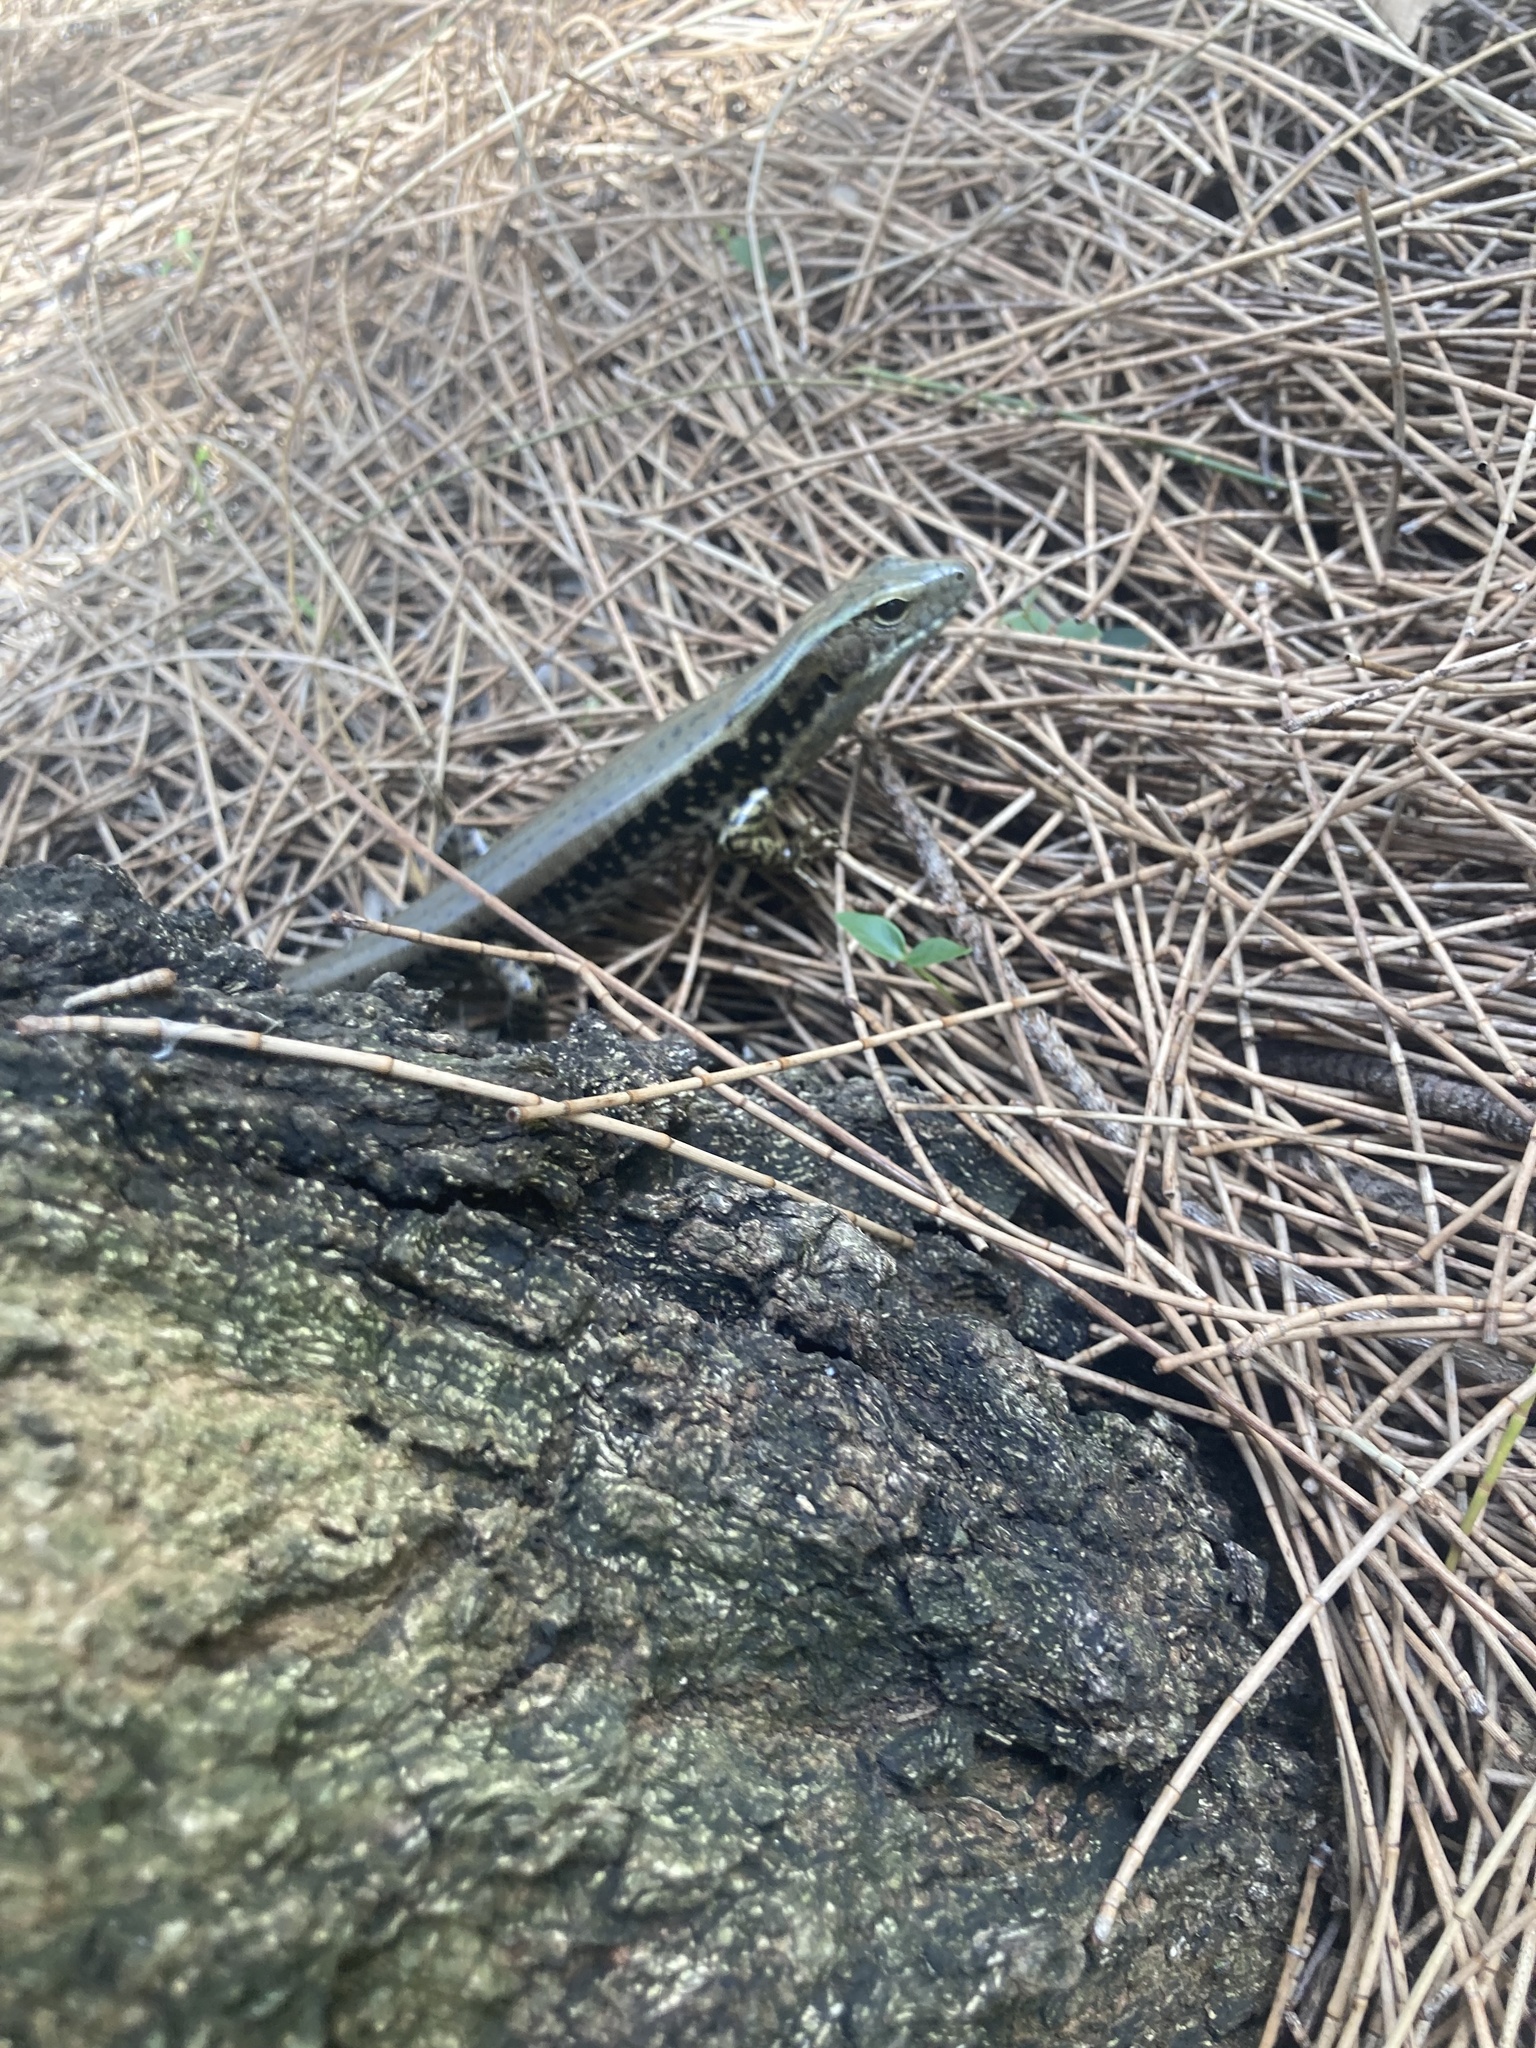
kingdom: Animalia
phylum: Chordata
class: Squamata
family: Scincidae
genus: Eulamprus
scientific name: Eulamprus quoyii
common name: Eastern water skink
